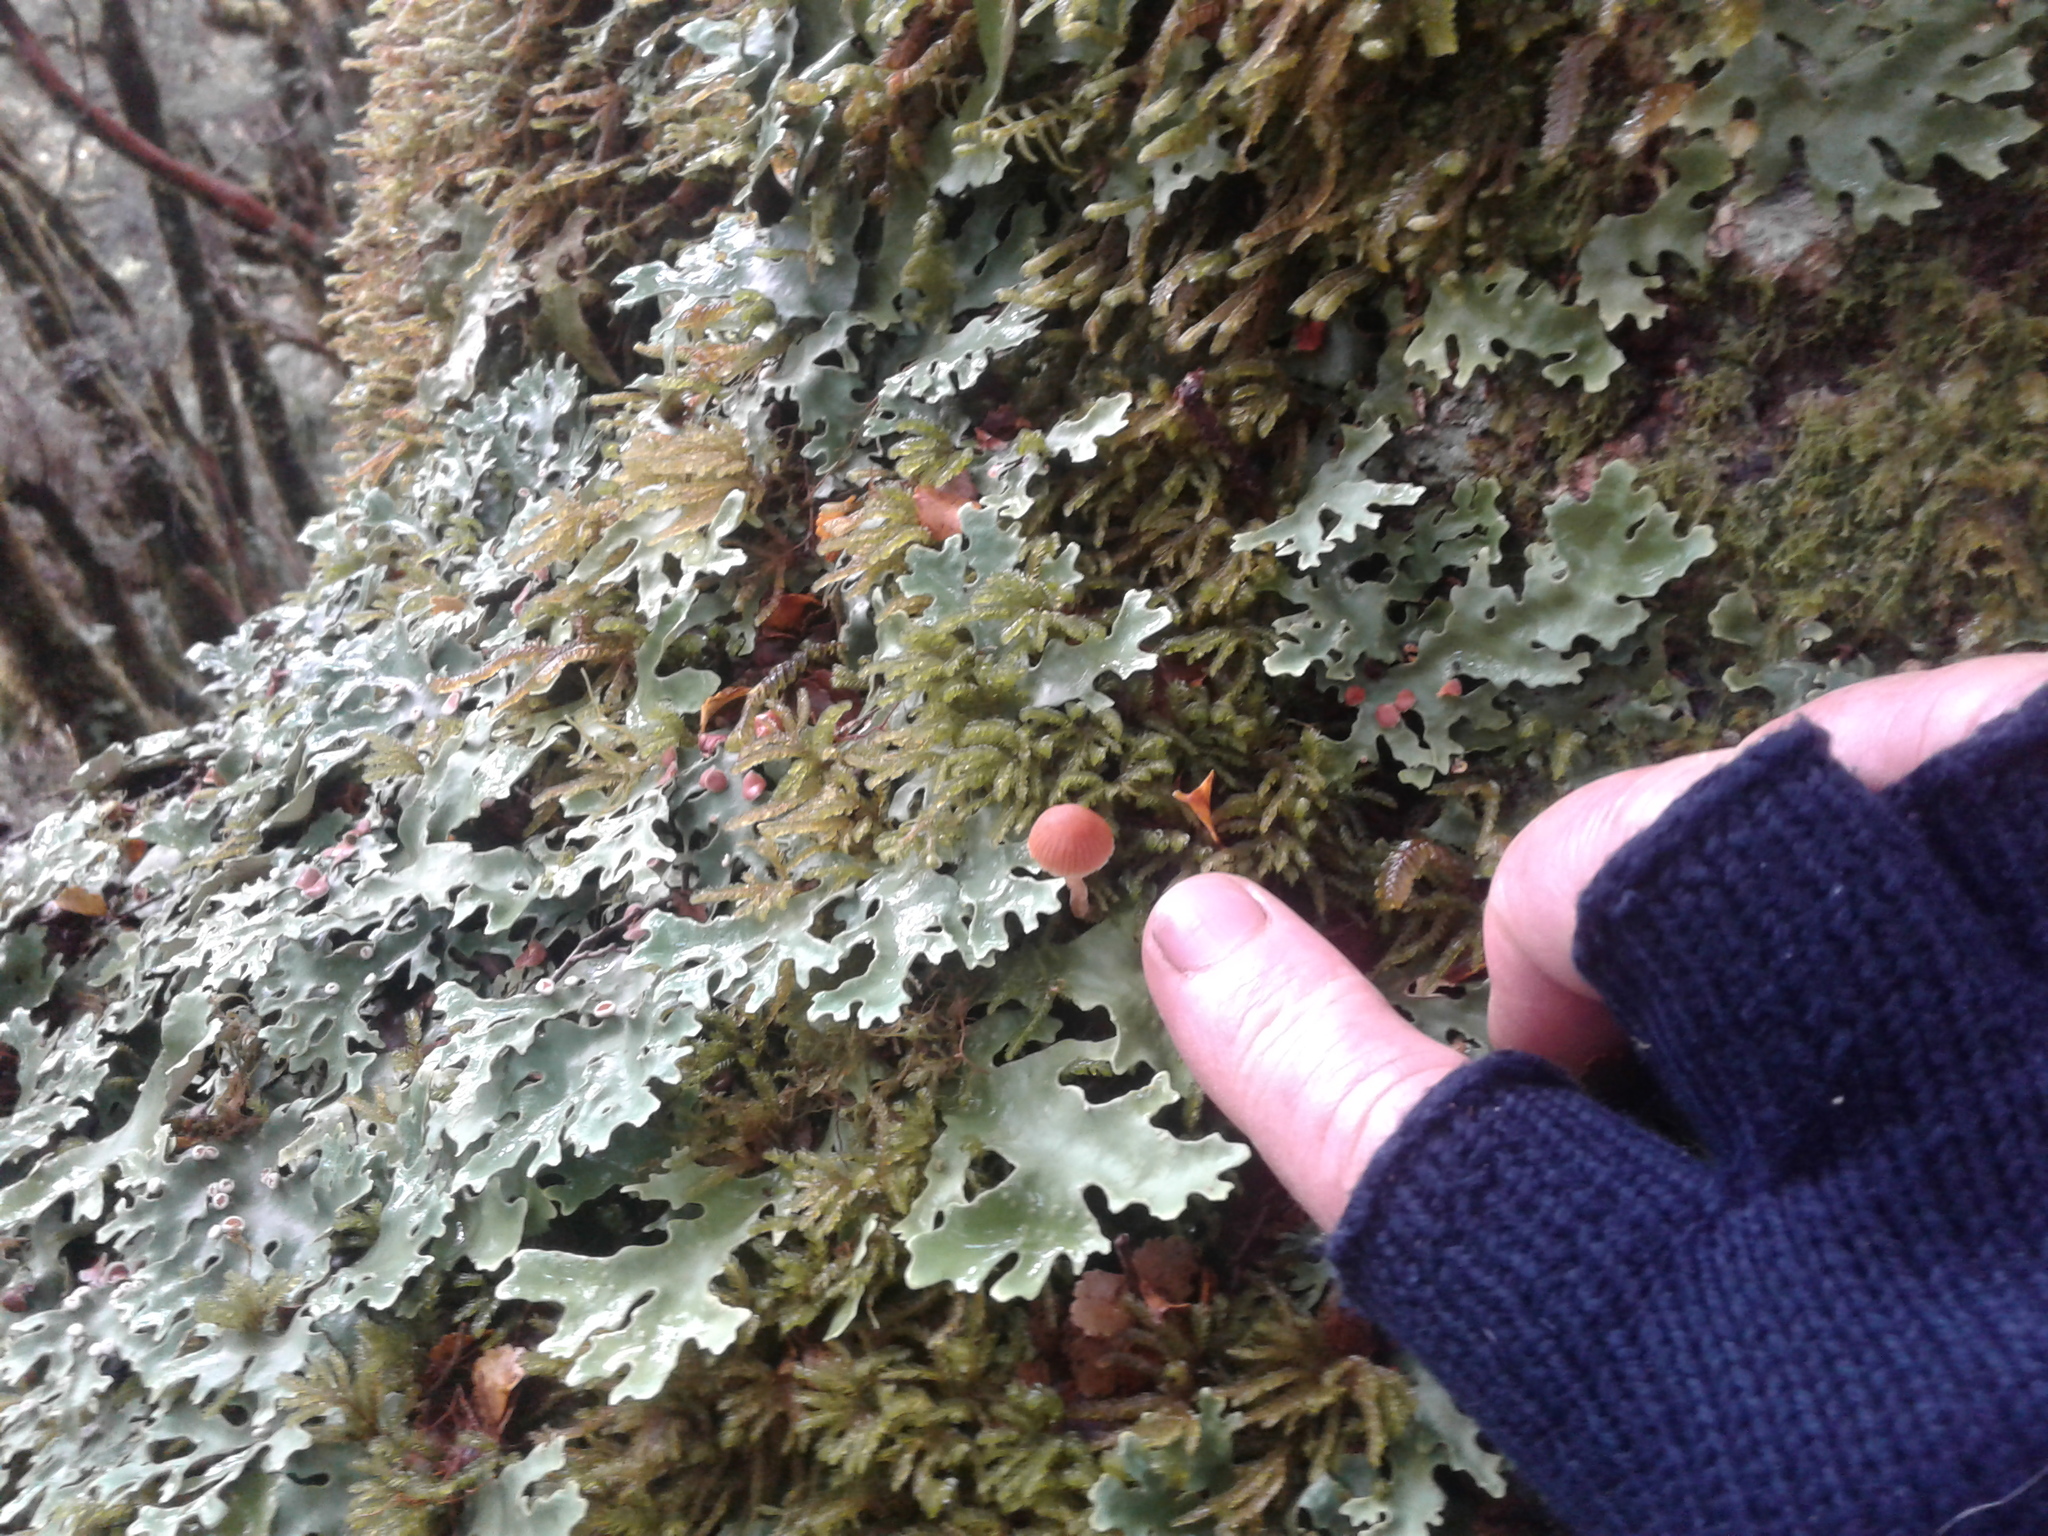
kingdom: Fungi
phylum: Ascomycota
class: Lecanoromycetes
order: Peltigerales
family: Lobariaceae
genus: Pseudocyphellaria
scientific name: Pseudocyphellaria homeophylla
